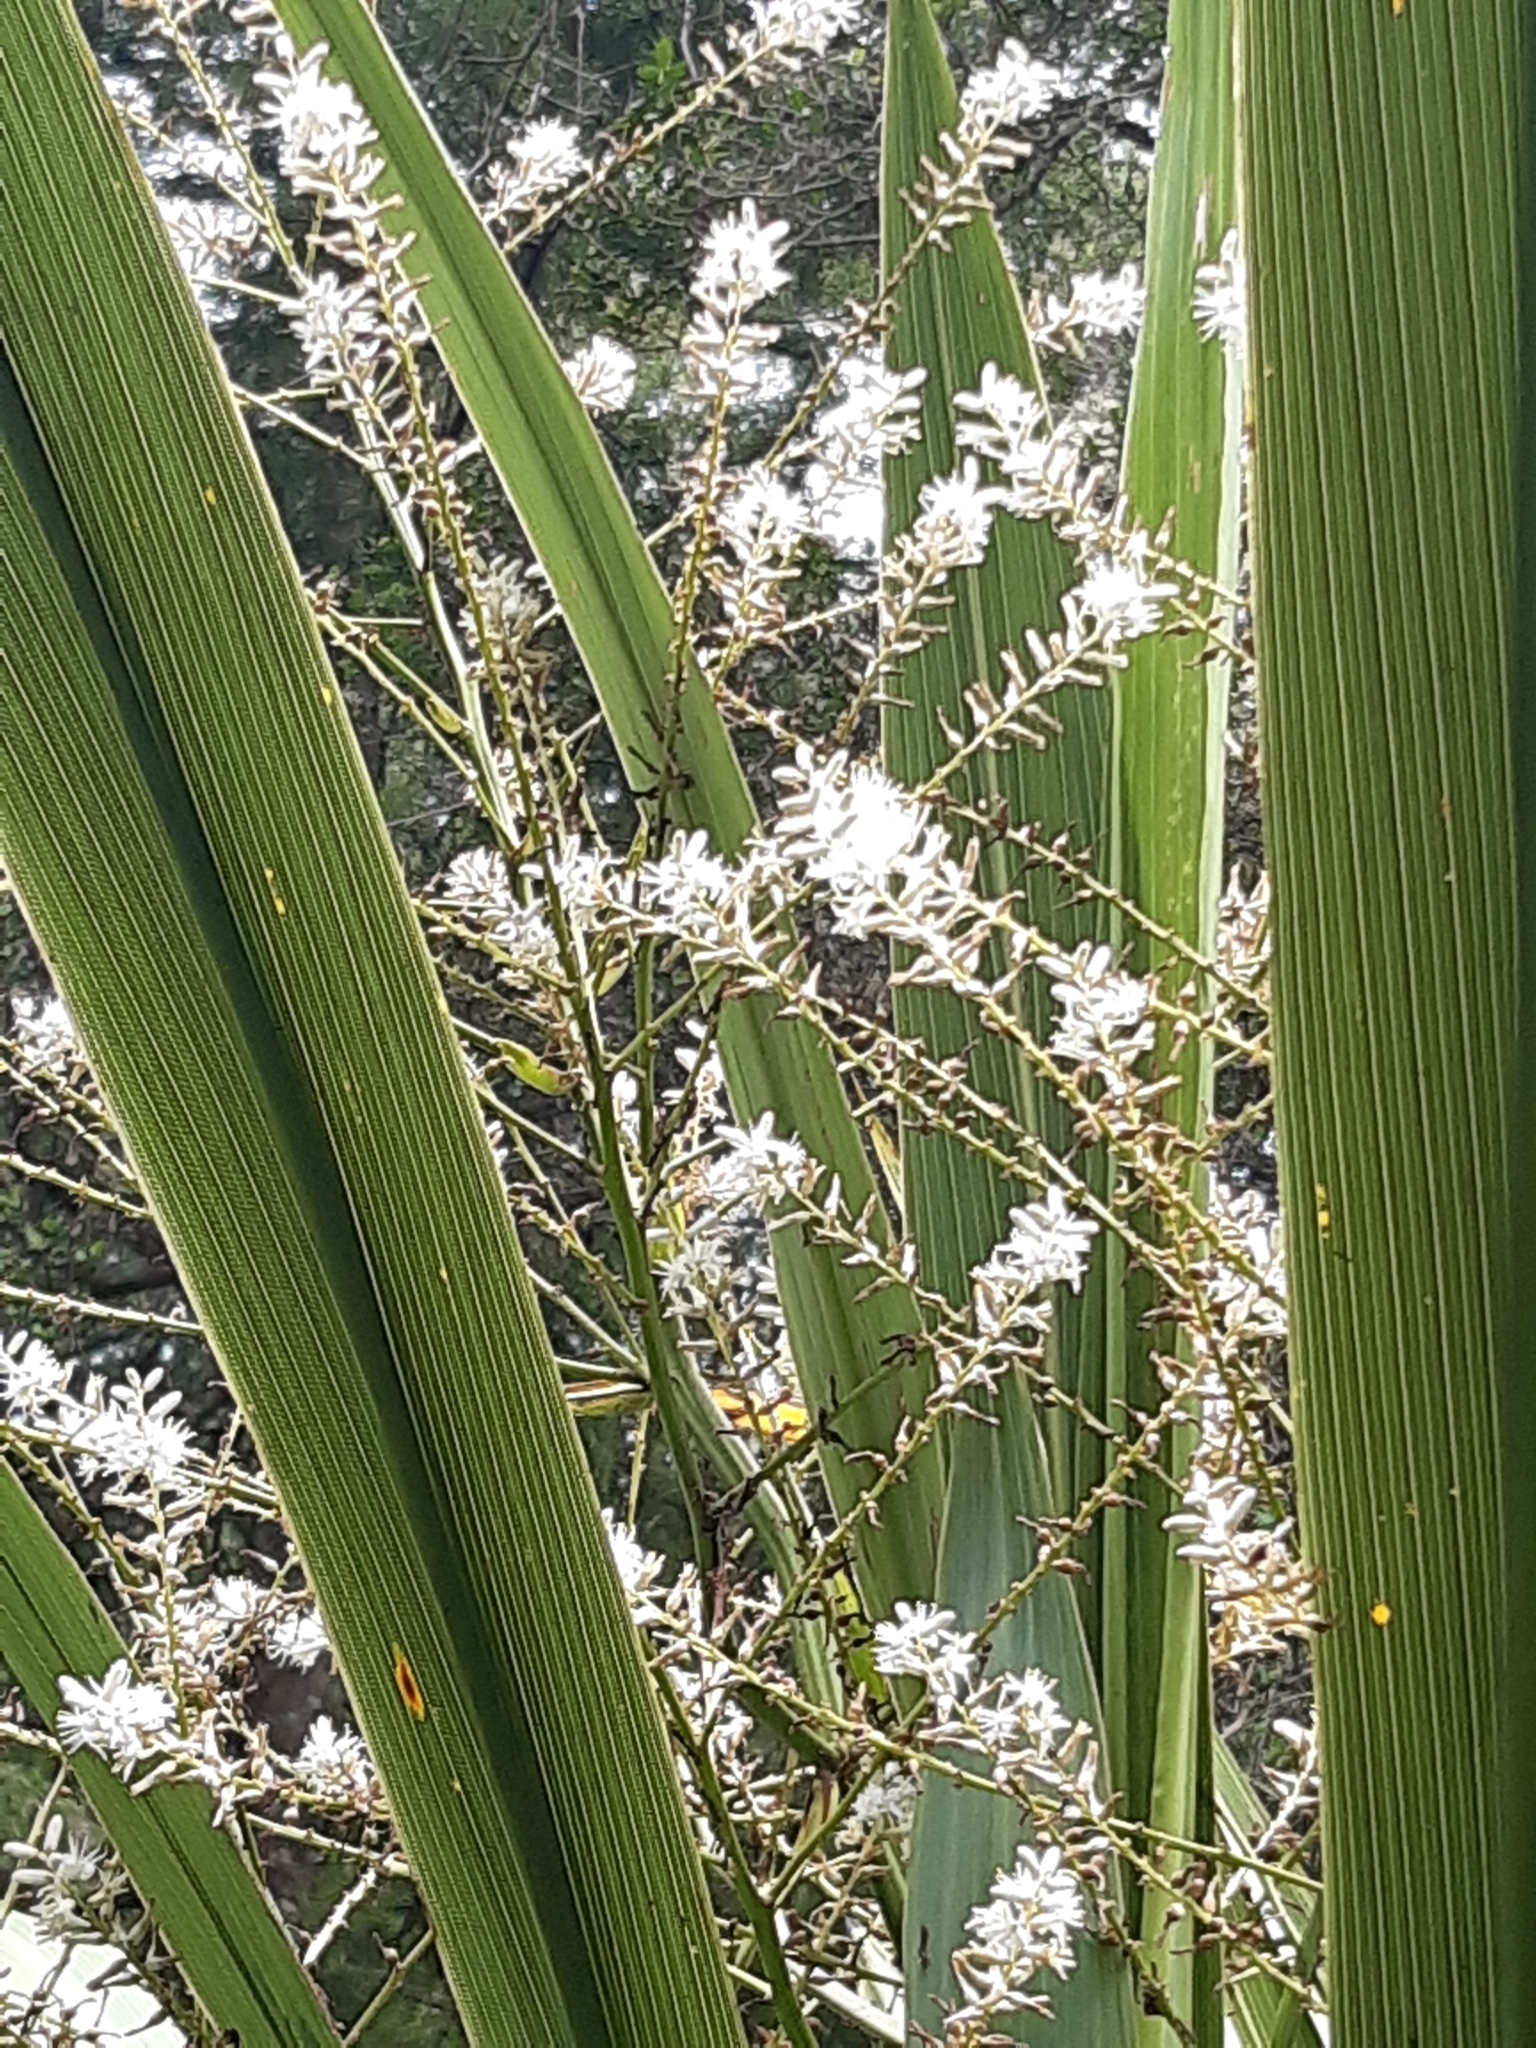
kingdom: Plantae
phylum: Tracheophyta
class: Liliopsida
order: Asparagales
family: Asparagaceae
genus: Cordyline
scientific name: Cordyline banksii
